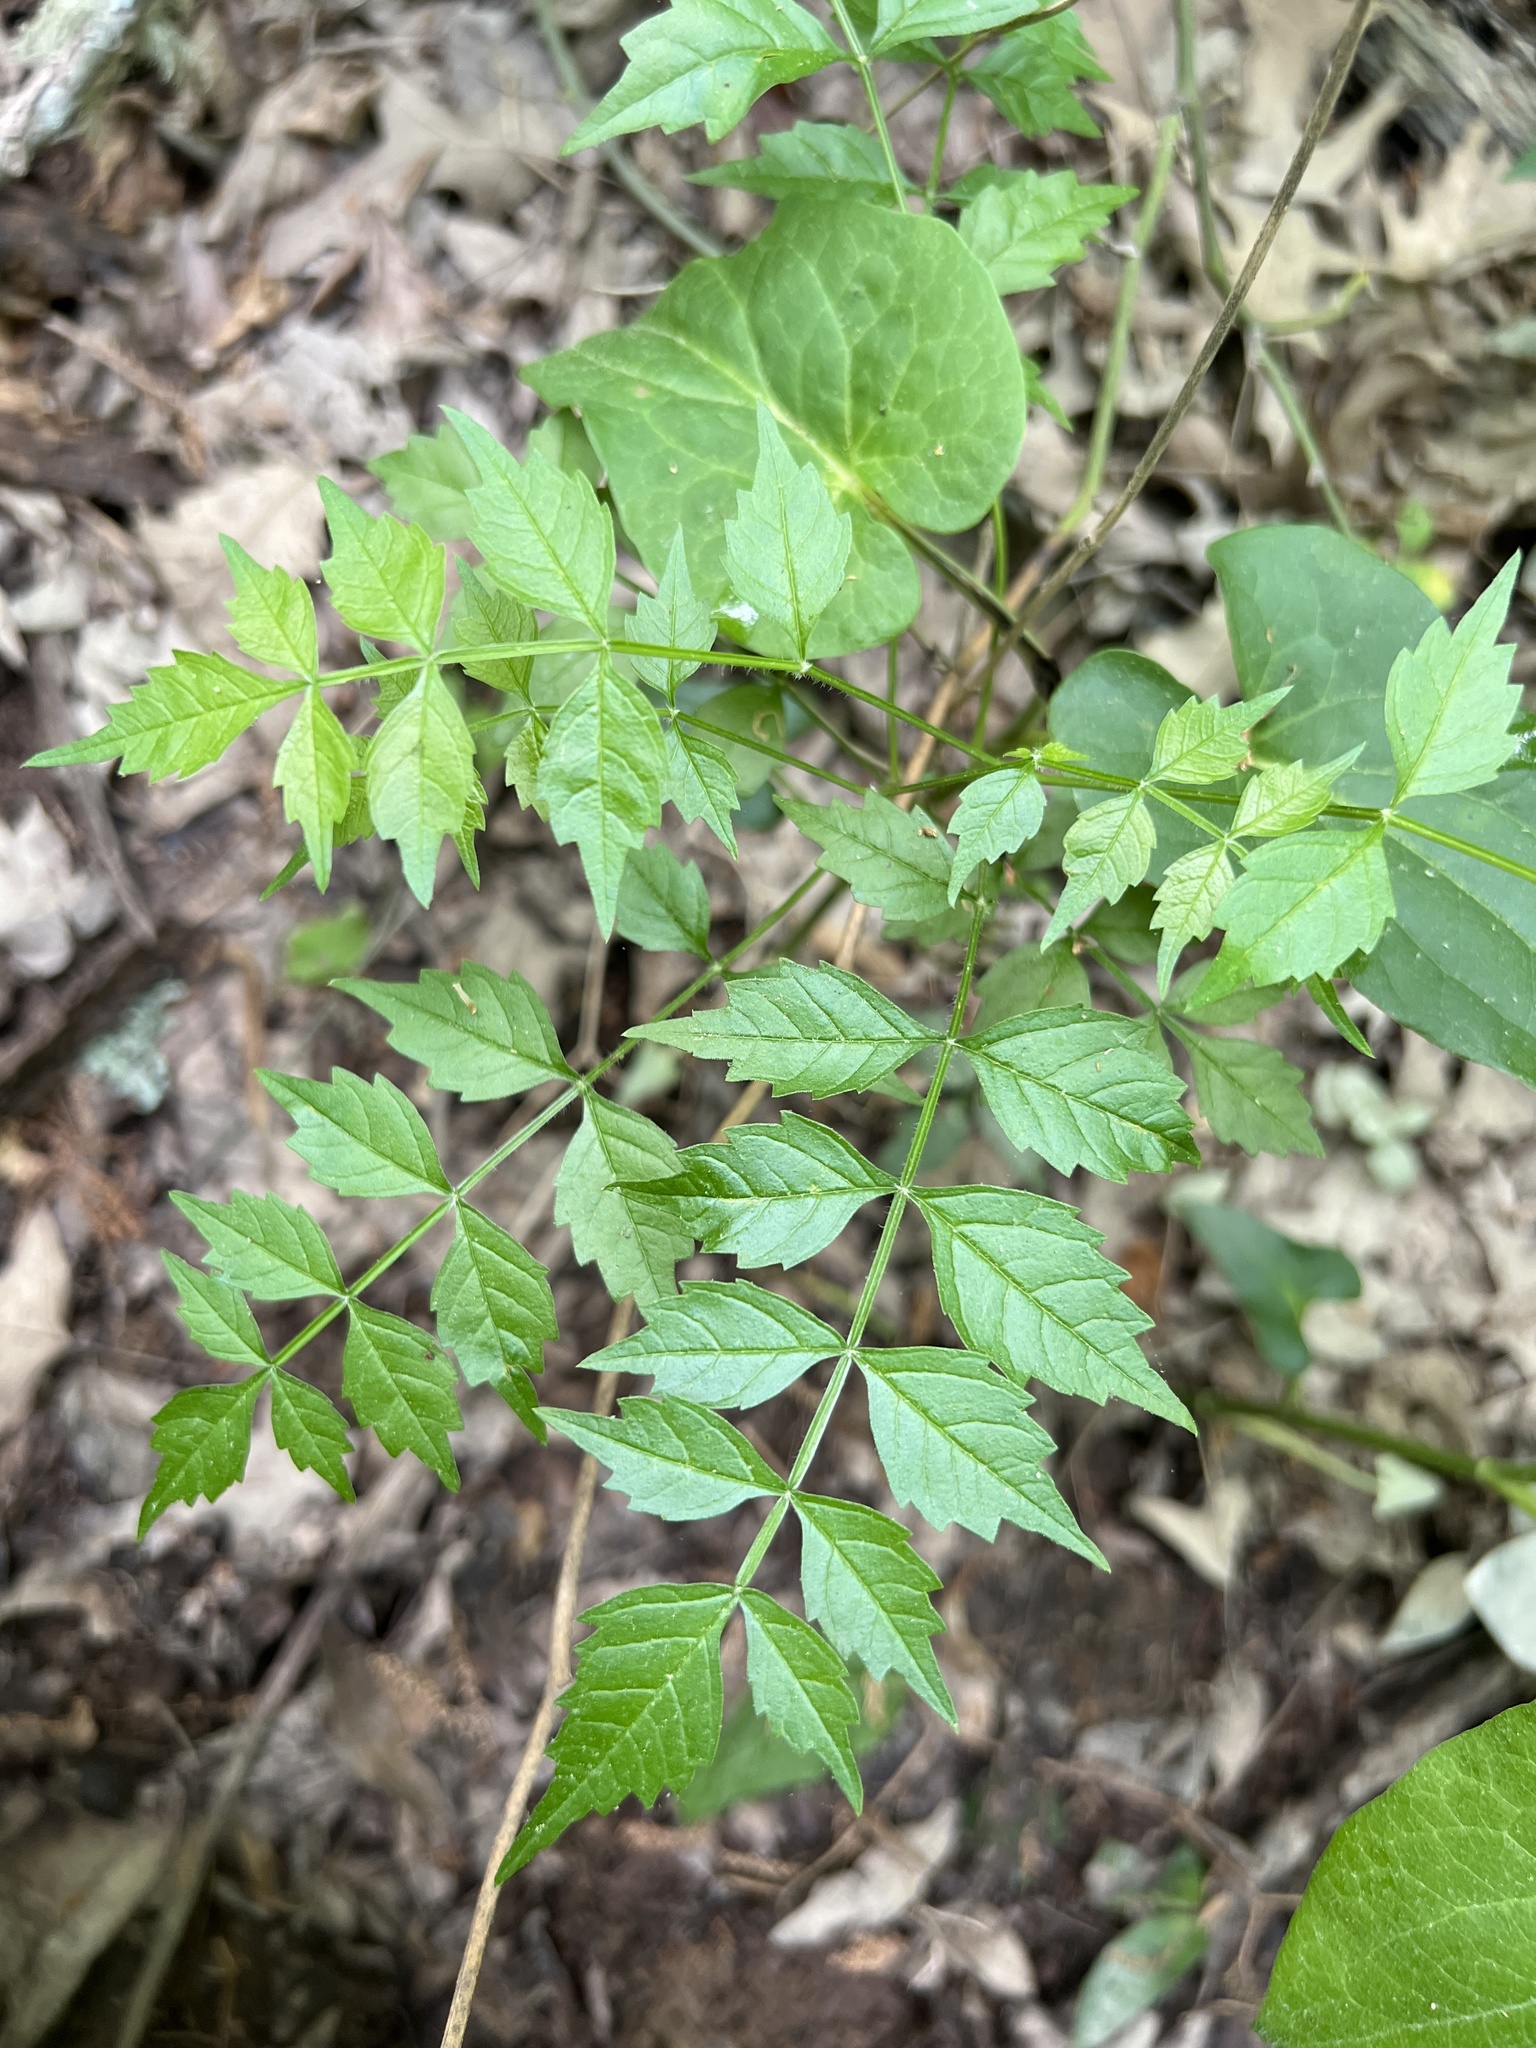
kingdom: Plantae
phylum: Tracheophyta
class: Magnoliopsida
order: Lamiales
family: Bignoniaceae
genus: Campsis
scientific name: Campsis radicans
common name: Trumpet-creeper
